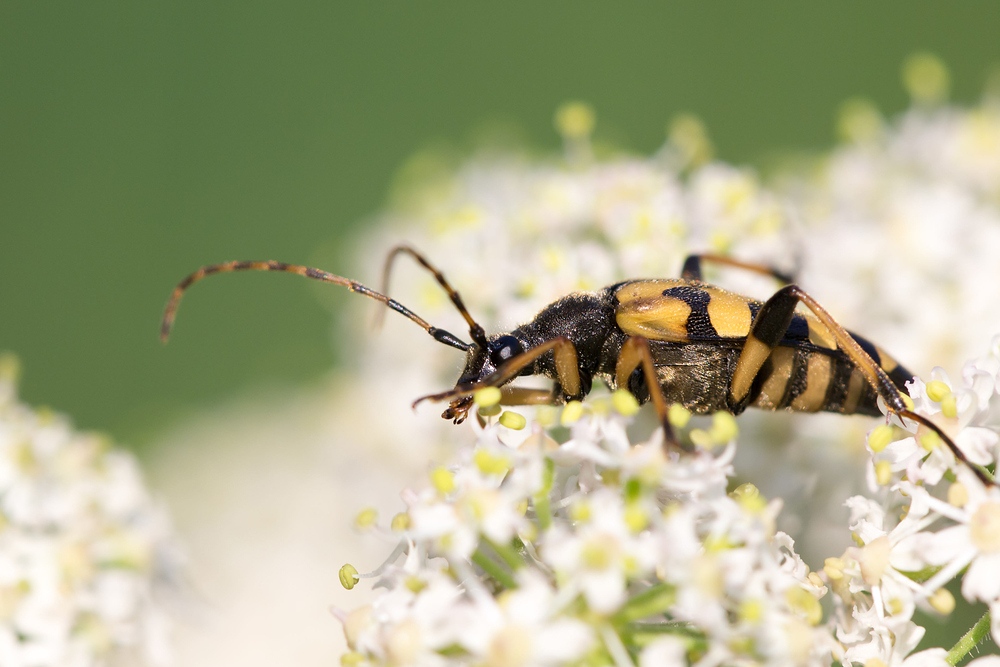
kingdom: Animalia
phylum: Arthropoda
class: Insecta
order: Coleoptera
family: Cerambycidae
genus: Rutpela
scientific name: Rutpela maculata
